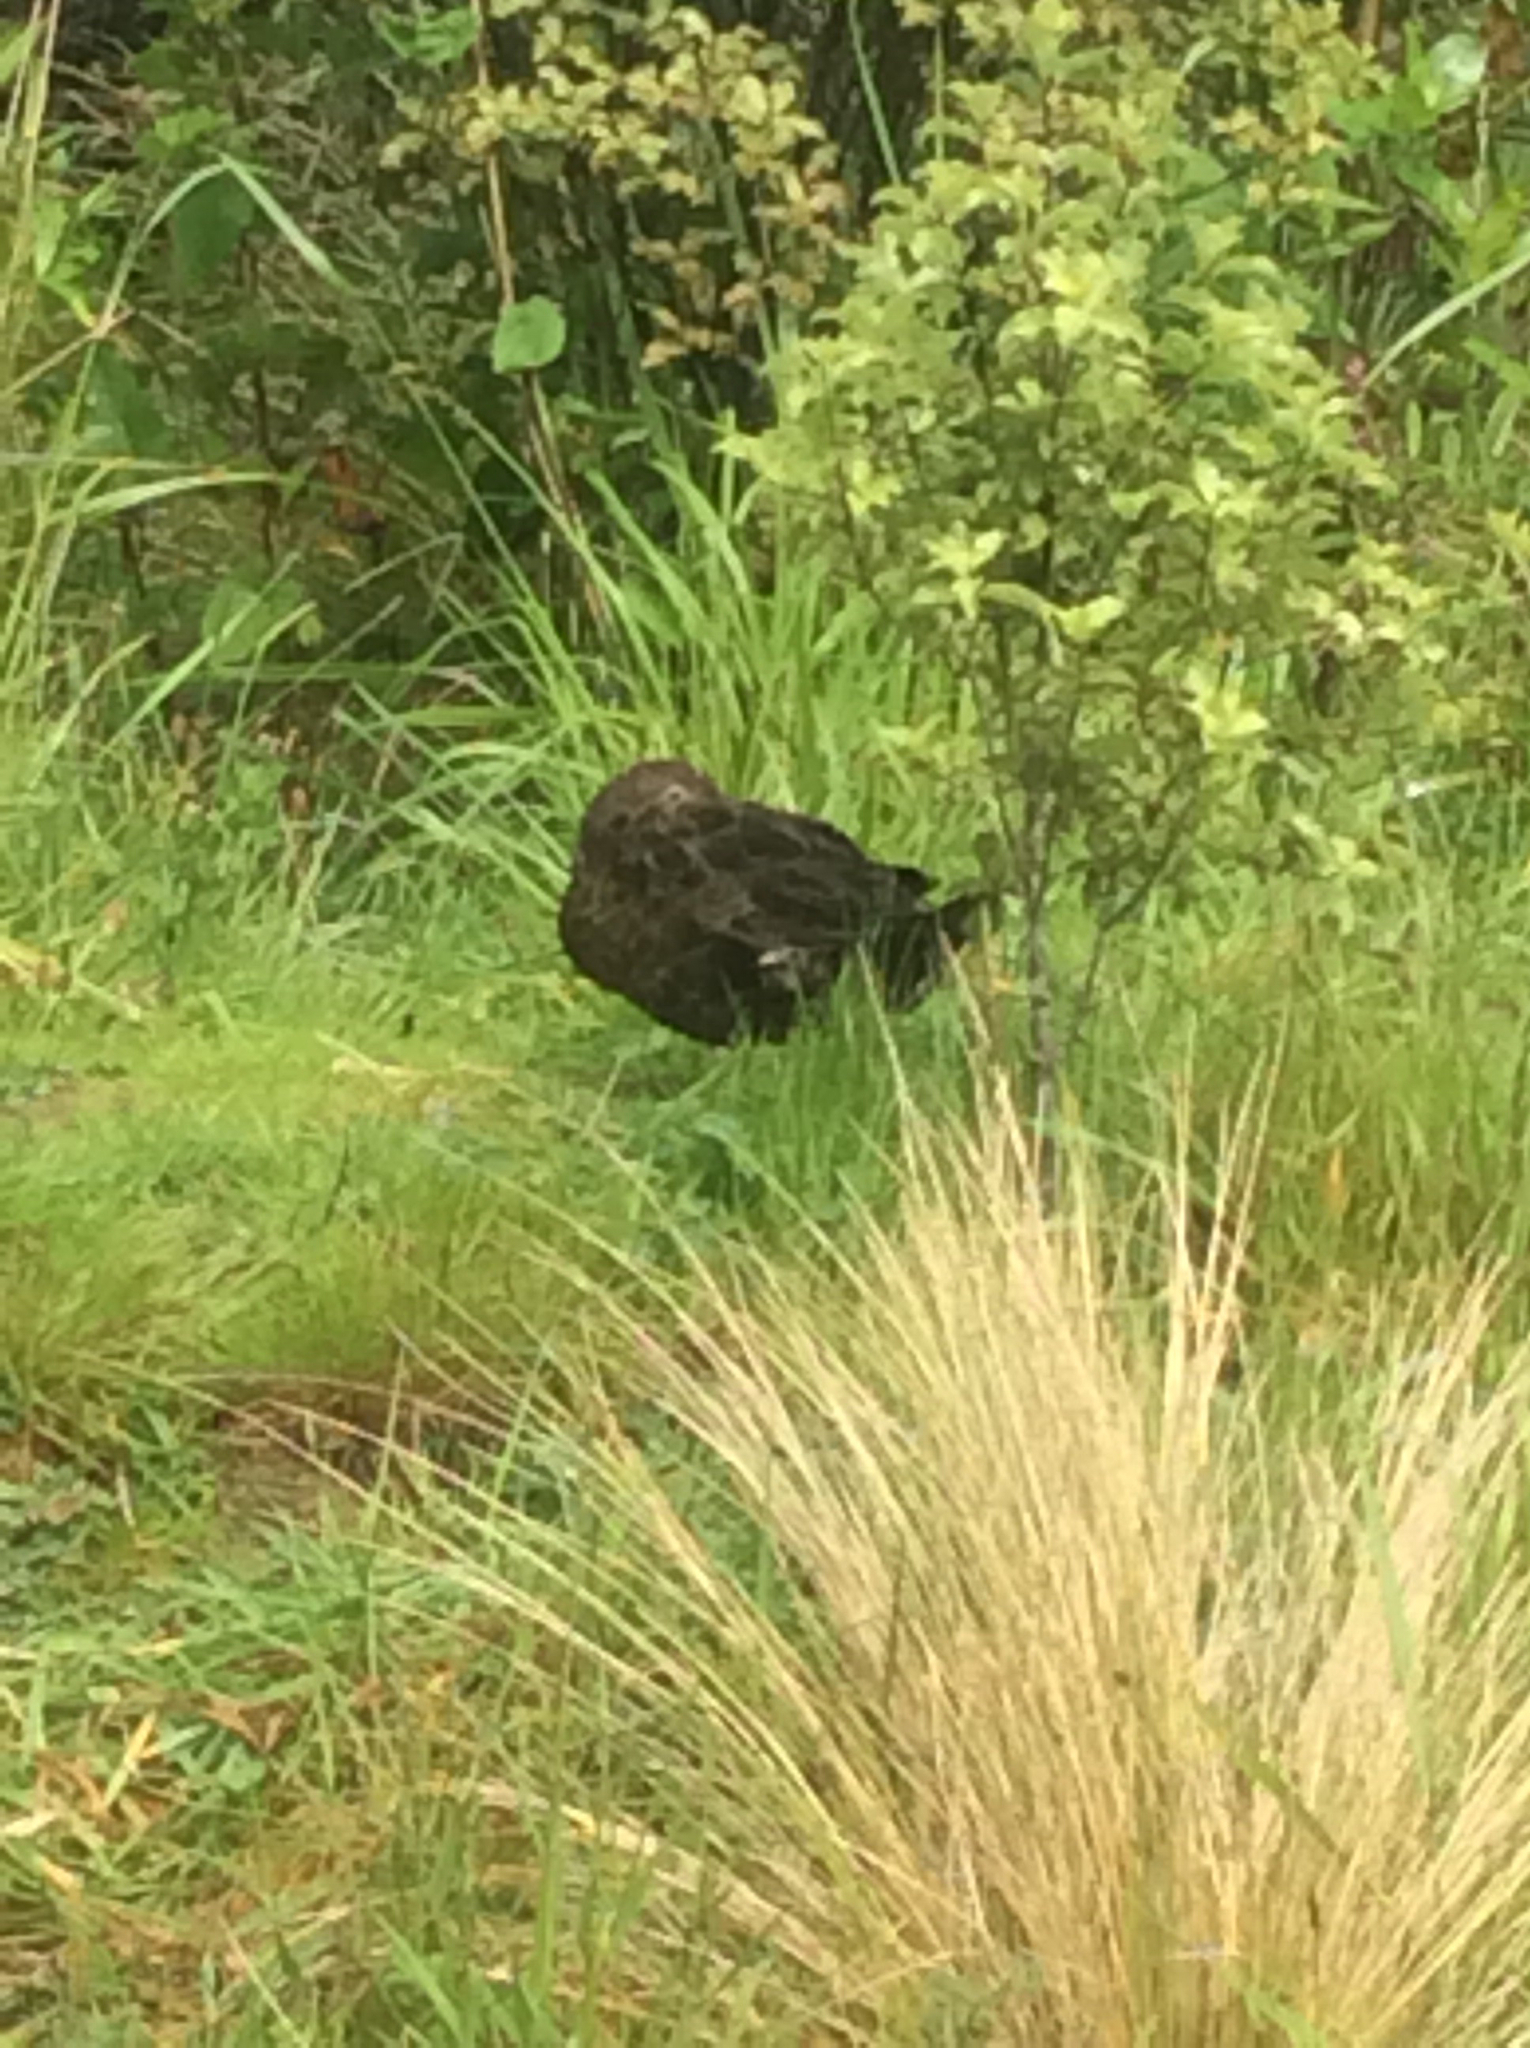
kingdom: Animalia
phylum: Chordata
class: Aves
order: Anseriformes
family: Anatidae
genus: Anas
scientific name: Anas chlorotis
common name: Brown teal
